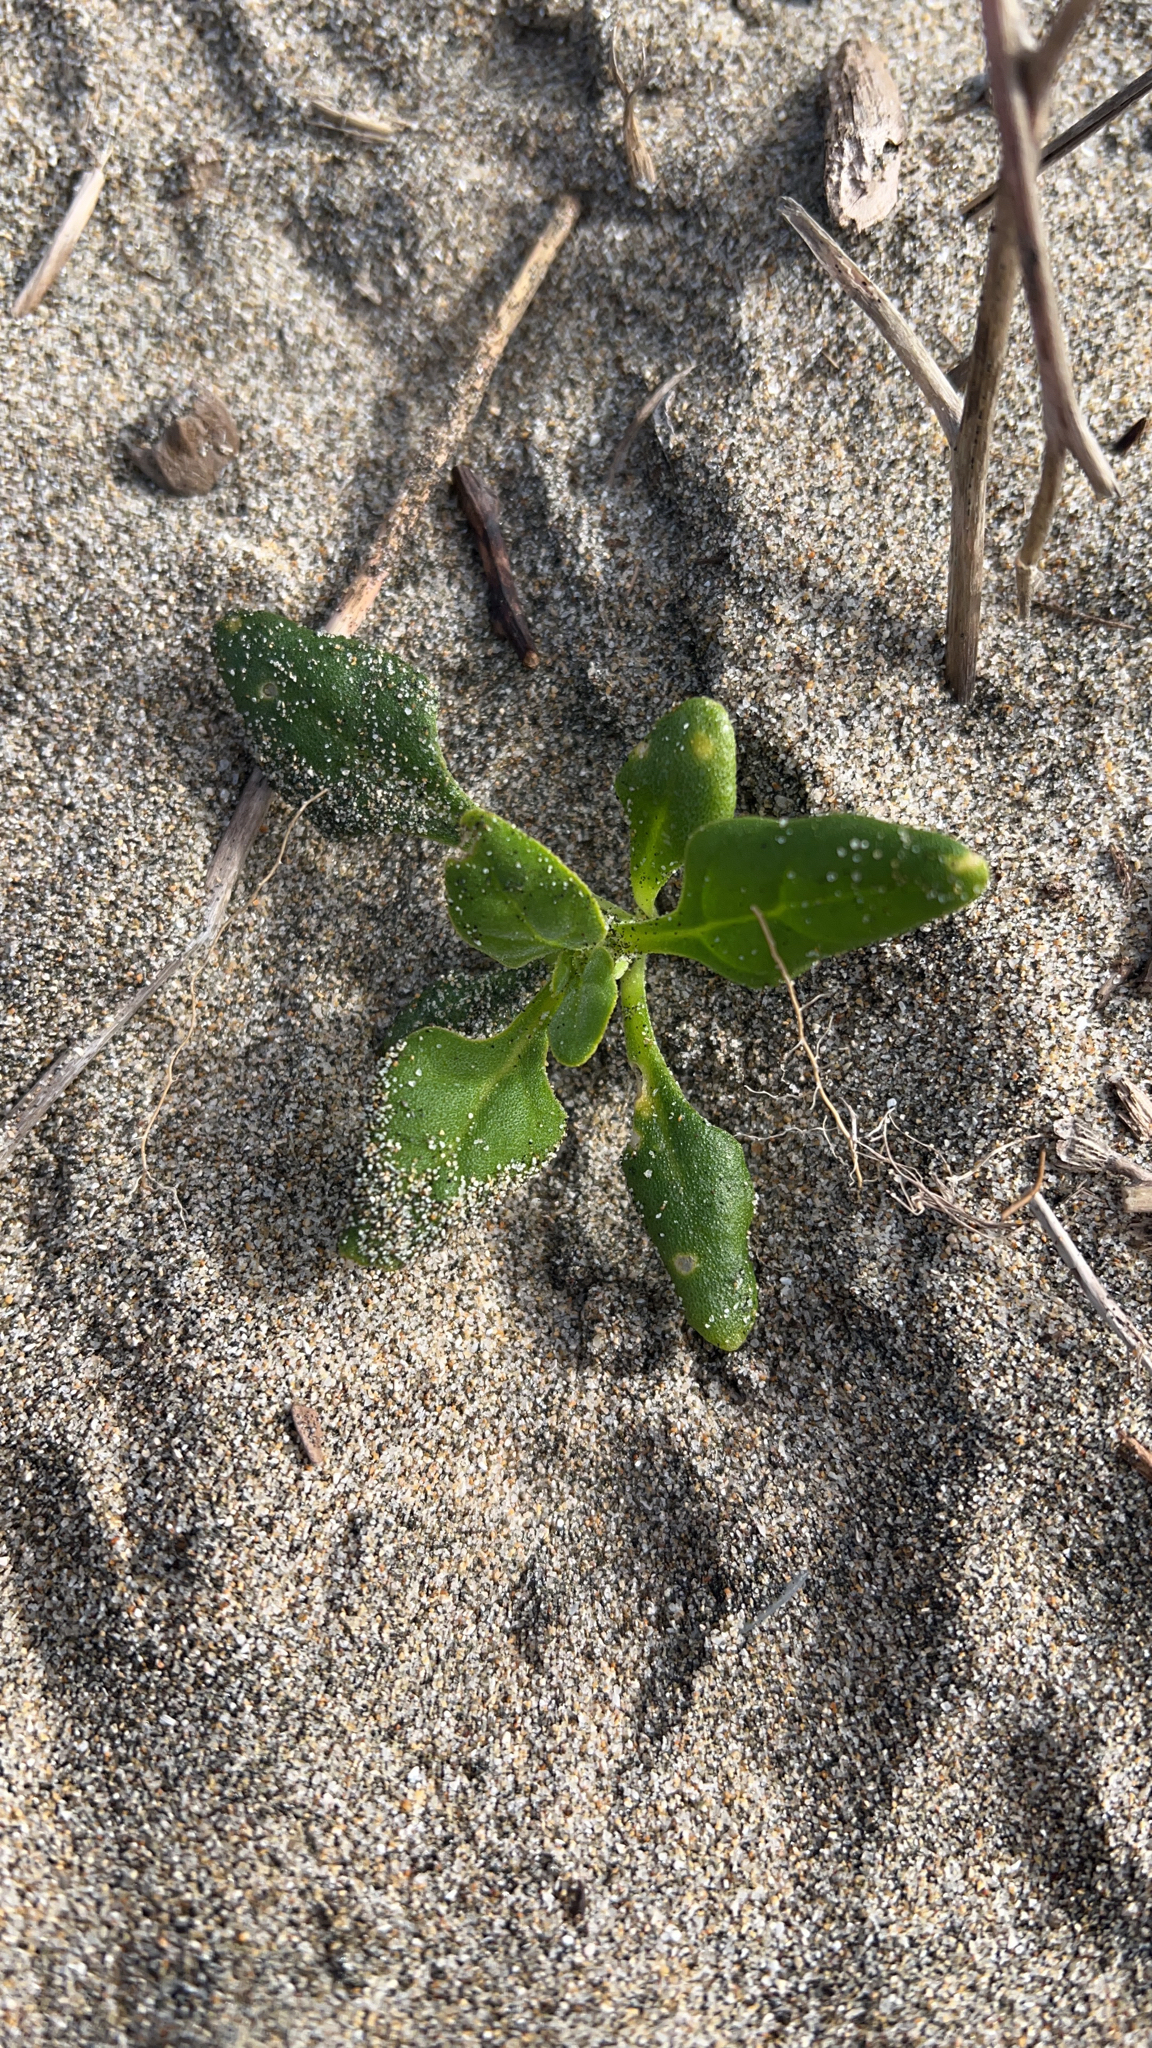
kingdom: Plantae
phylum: Tracheophyta
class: Magnoliopsida
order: Caryophyllales
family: Aizoaceae
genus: Tetragonia
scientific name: Tetragonia tetragonoides
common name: New zealand-spinach
